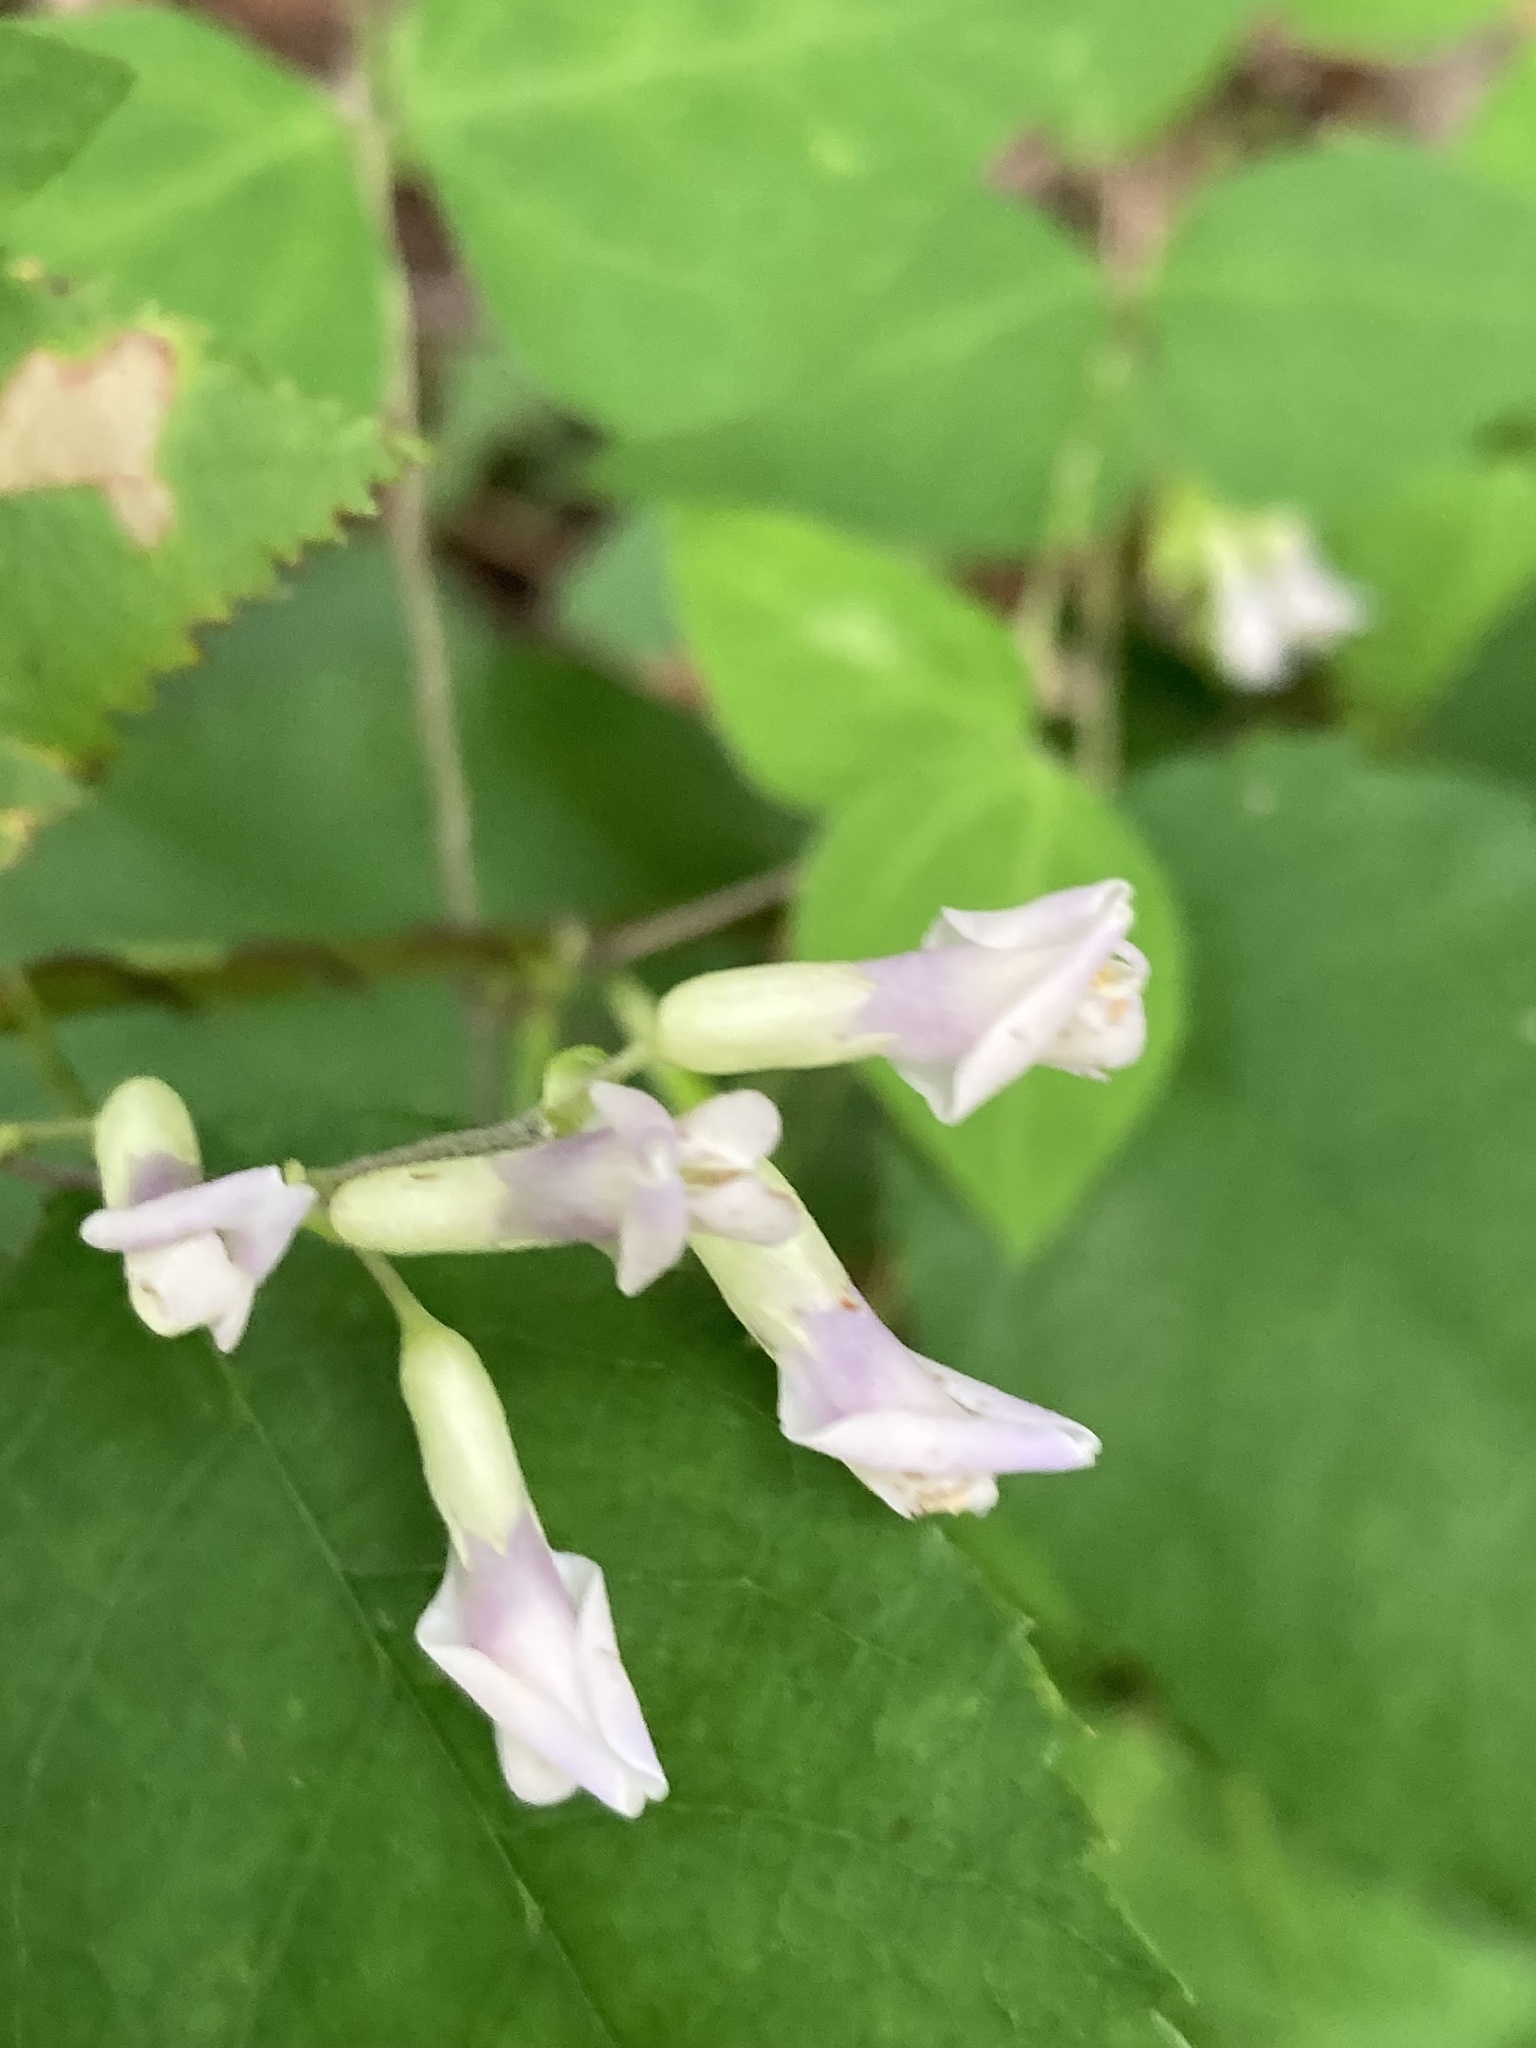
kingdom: Plantae
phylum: Tracheophyta
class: Magnoliopsida
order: Fabales
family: Fabaceae
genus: Amphicarpaea
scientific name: Amphicarpaea bracteata
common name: American hog peanut
